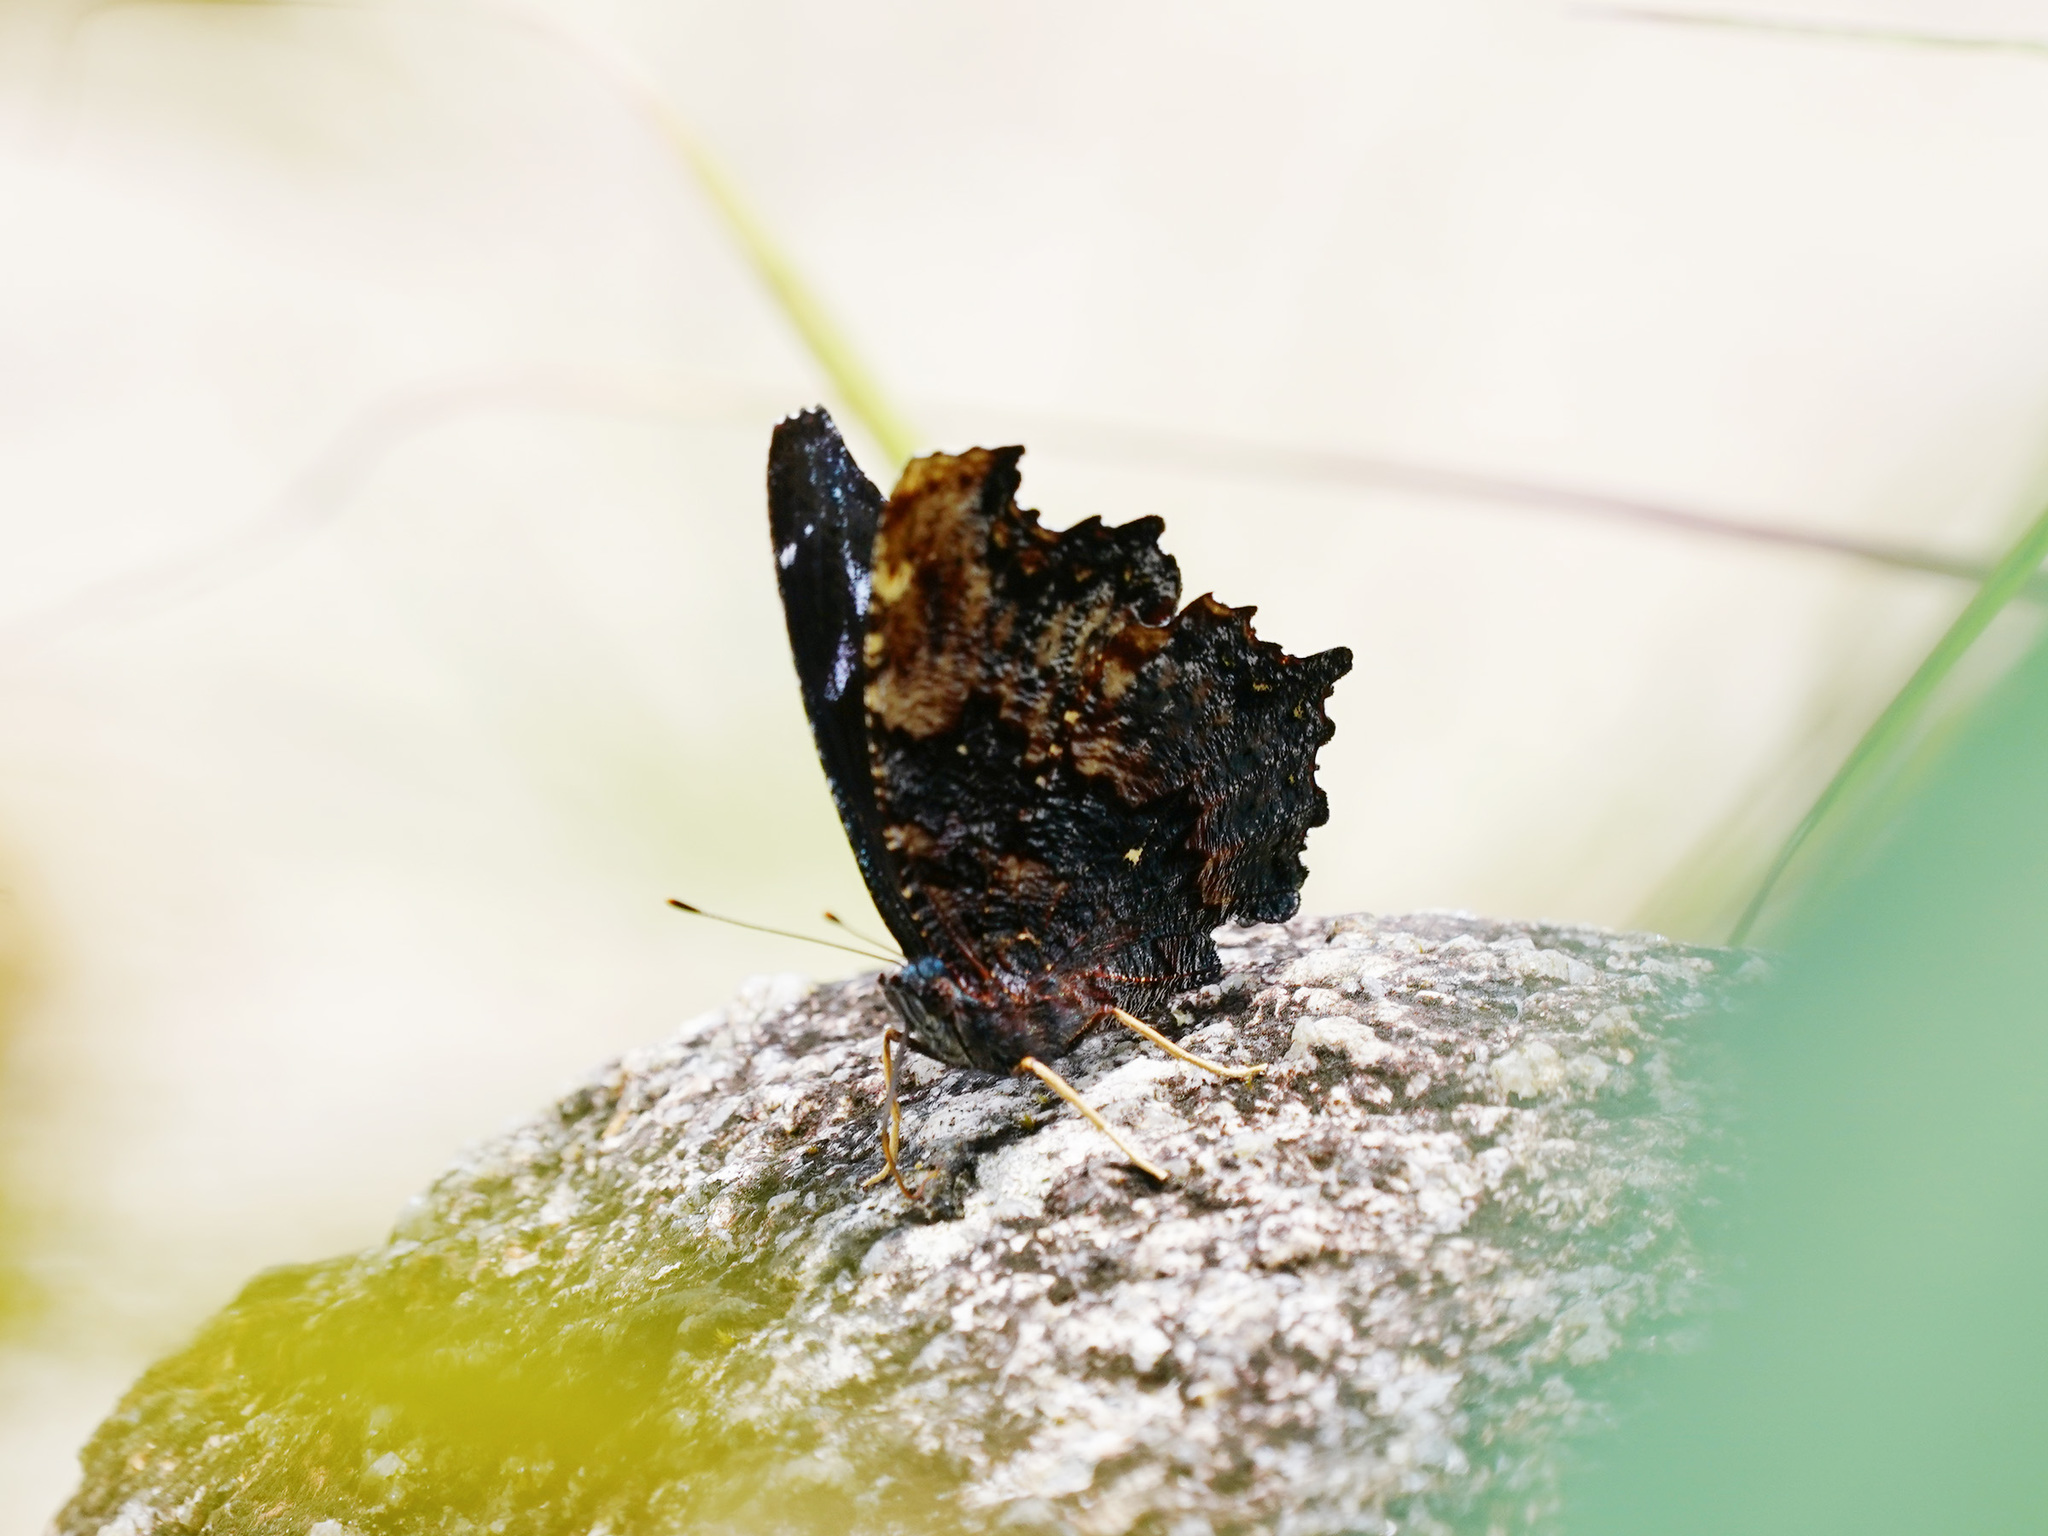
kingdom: Animalia
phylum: Arthropoda
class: Insecta
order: Lepidoptera
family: Nymphalidae
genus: Vanessa
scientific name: Vanessa Kaniska canace
